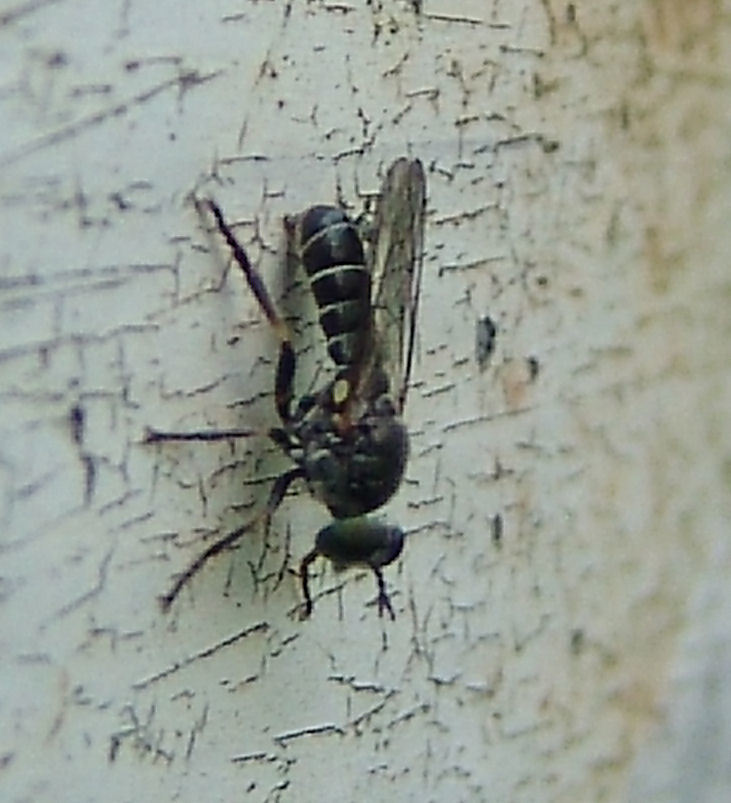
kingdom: Animalia
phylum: Arthropoda
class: Insecta
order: Diptera
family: Asilidae
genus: Atomosia
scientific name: Atomosia
